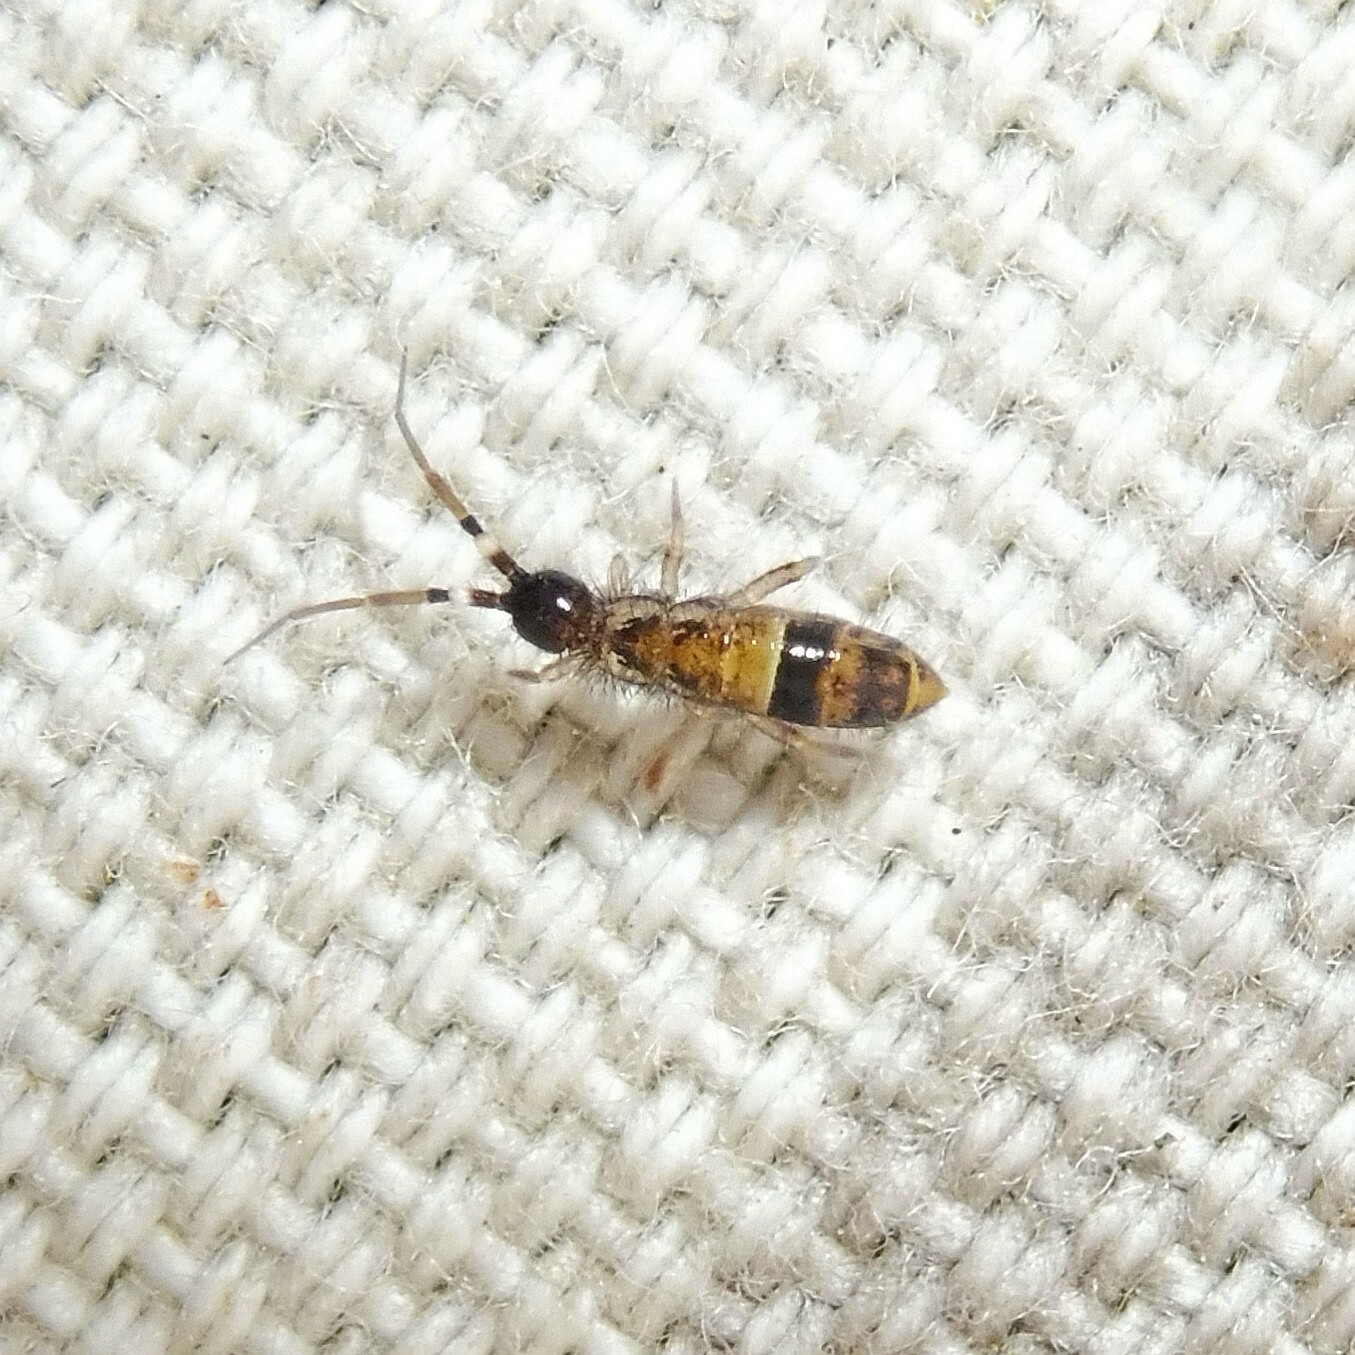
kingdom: Animalia
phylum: Arthropoda
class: Collembola
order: Entomobryomorpha
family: Orchesellidae
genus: Orchesella
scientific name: Orchesella cincta
